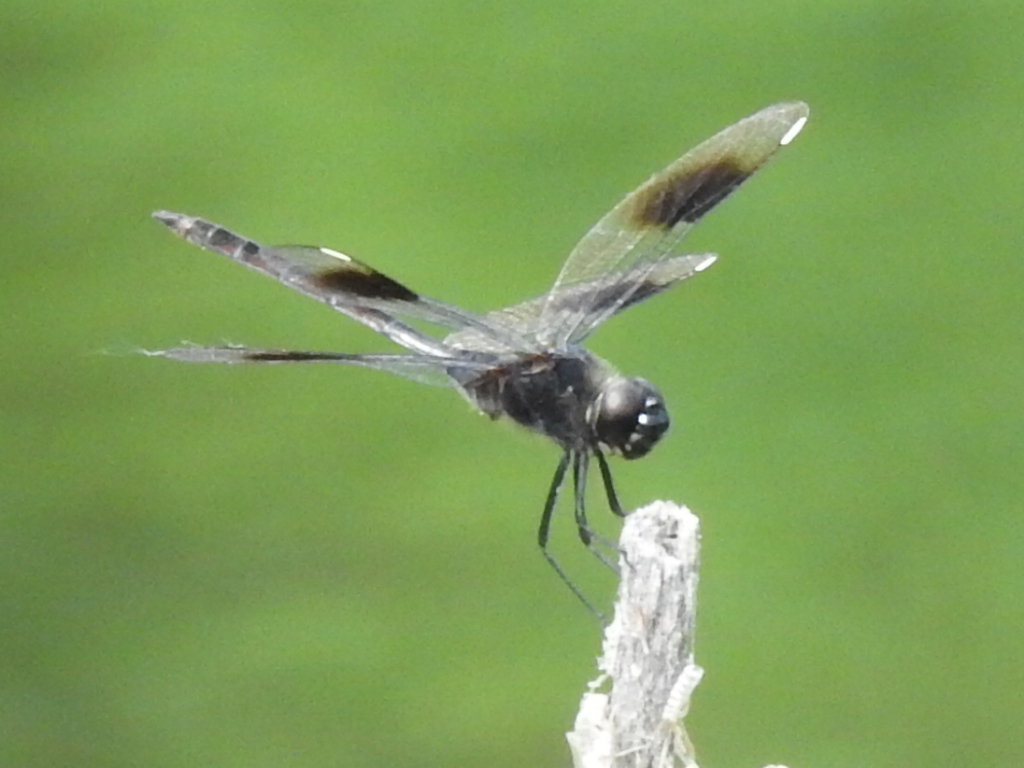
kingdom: Animalia
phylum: Arthropoda
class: Insecta
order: Odonata
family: Libellulidae
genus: Brachymesia
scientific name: Brachymesia gravida
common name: Four-spotted pennant
